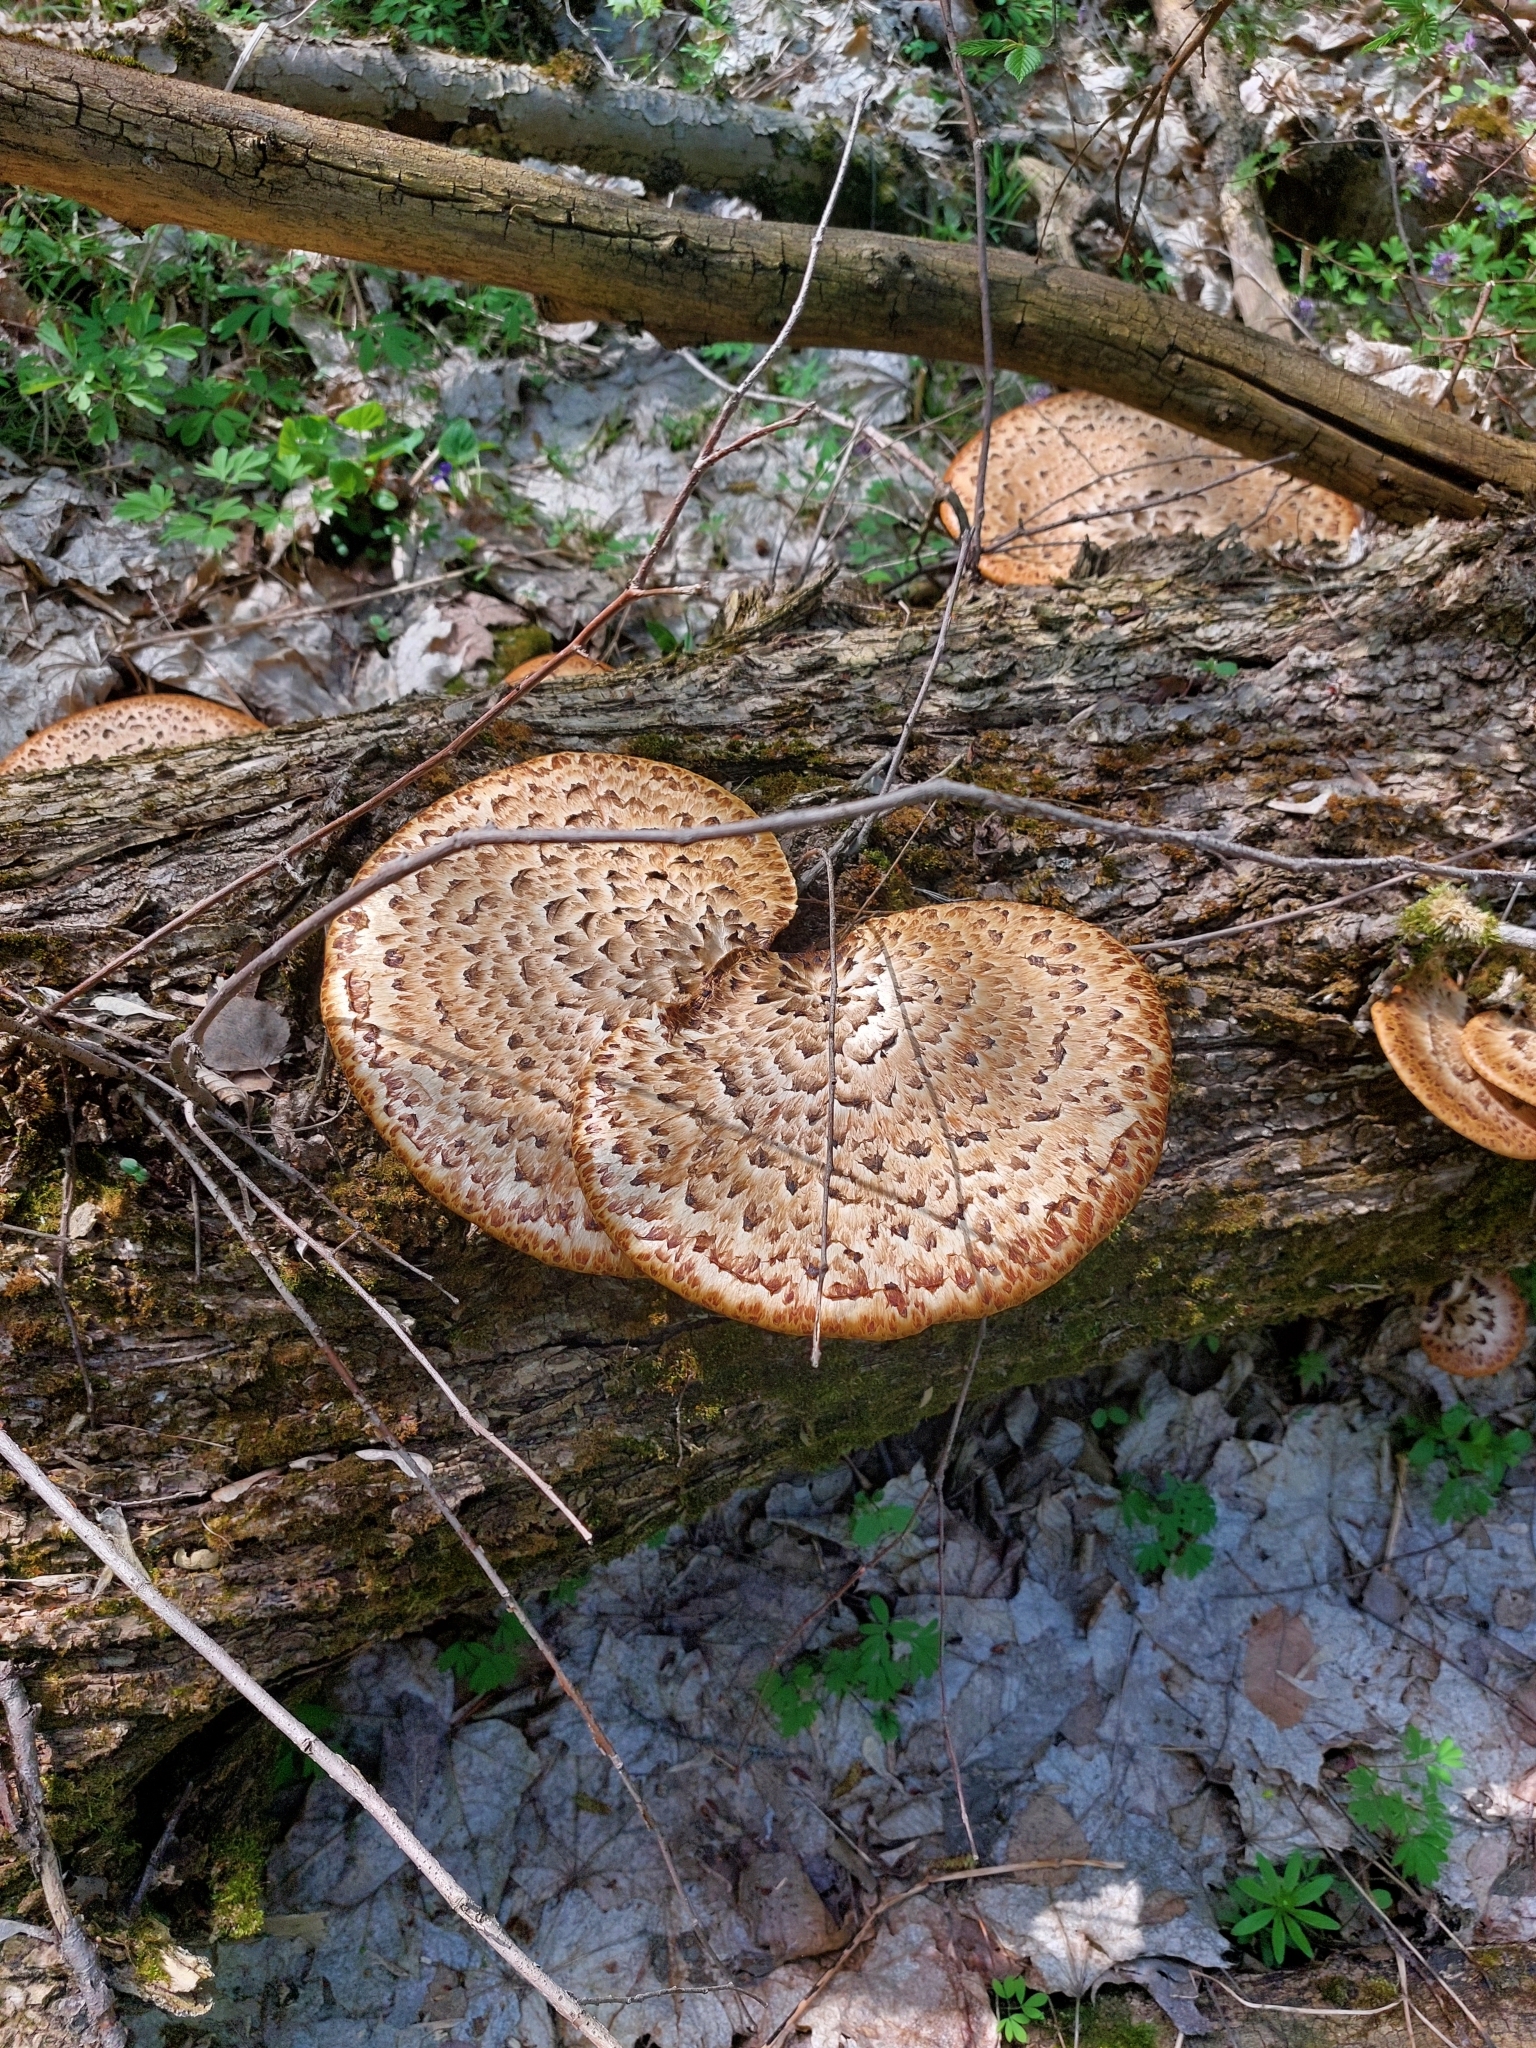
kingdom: Fungi
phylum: Basidiomycota
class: Agaricomycetes
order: Polyporales
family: Polyporaceae
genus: Cerioporus
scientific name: Cerioporus squamosus
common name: Dryad's saddle
